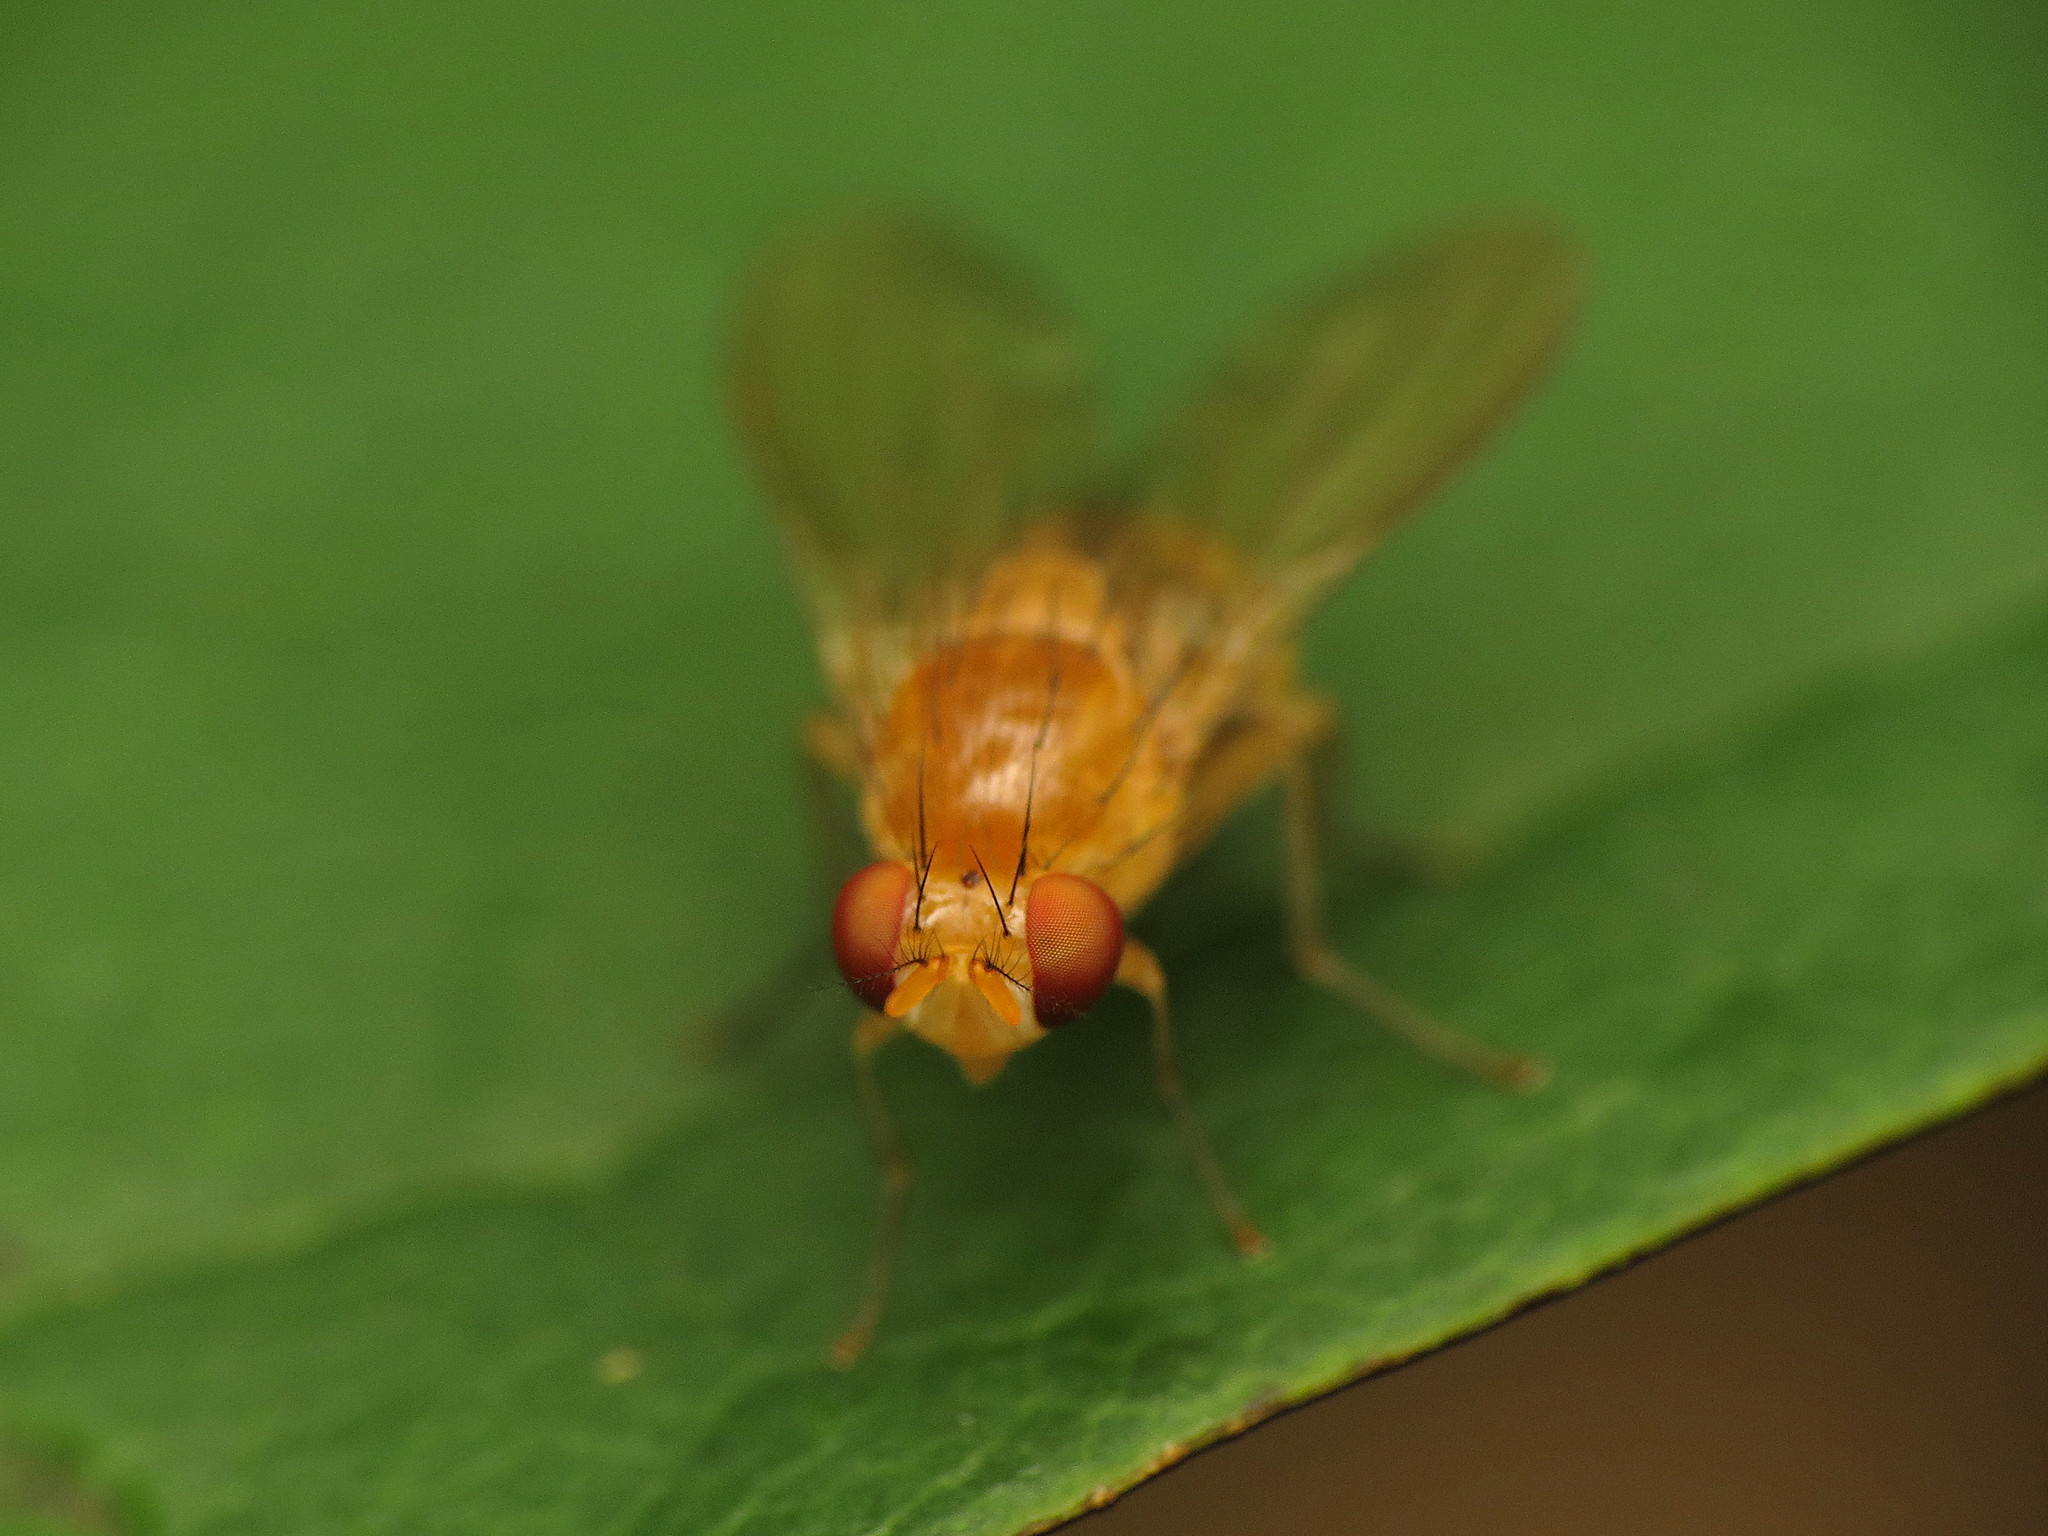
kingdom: Animalia
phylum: Arthropoda
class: Insecta
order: Diptera
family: Lauxaniidae
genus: Neogriphoneura
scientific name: Neogriphoneura sordida
